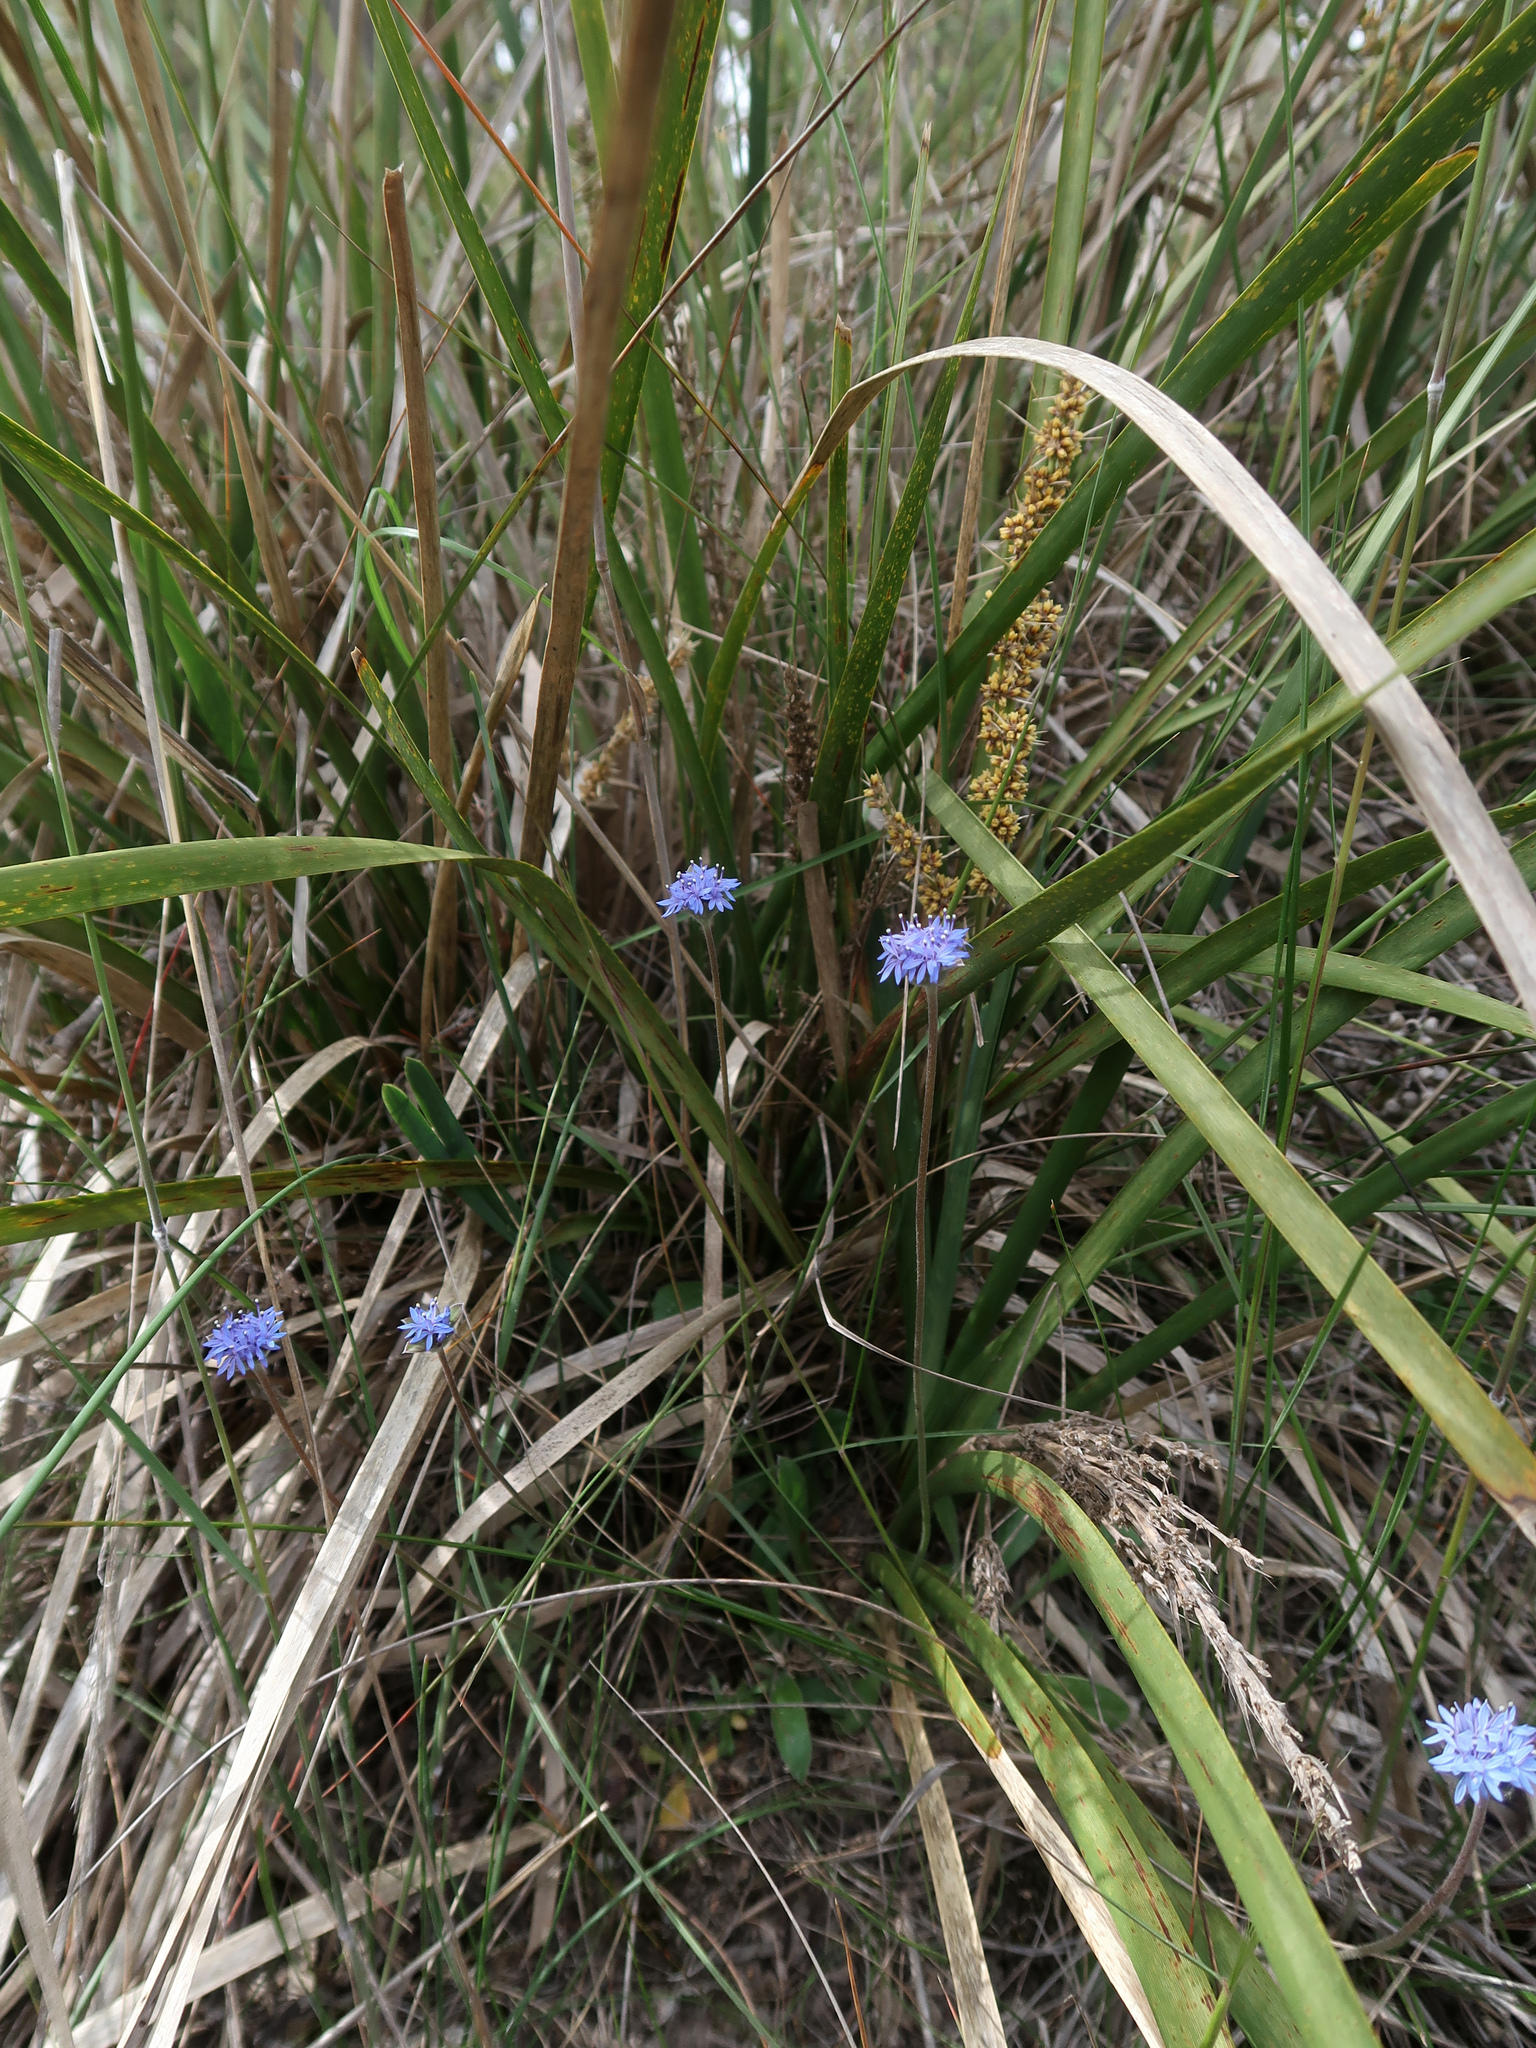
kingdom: Plantae
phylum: Tracheophyta
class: Magnoliopsida
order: Asterales
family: Goodeniaceae
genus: Brunonia
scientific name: Brunonia australis
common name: Blue pincushion
